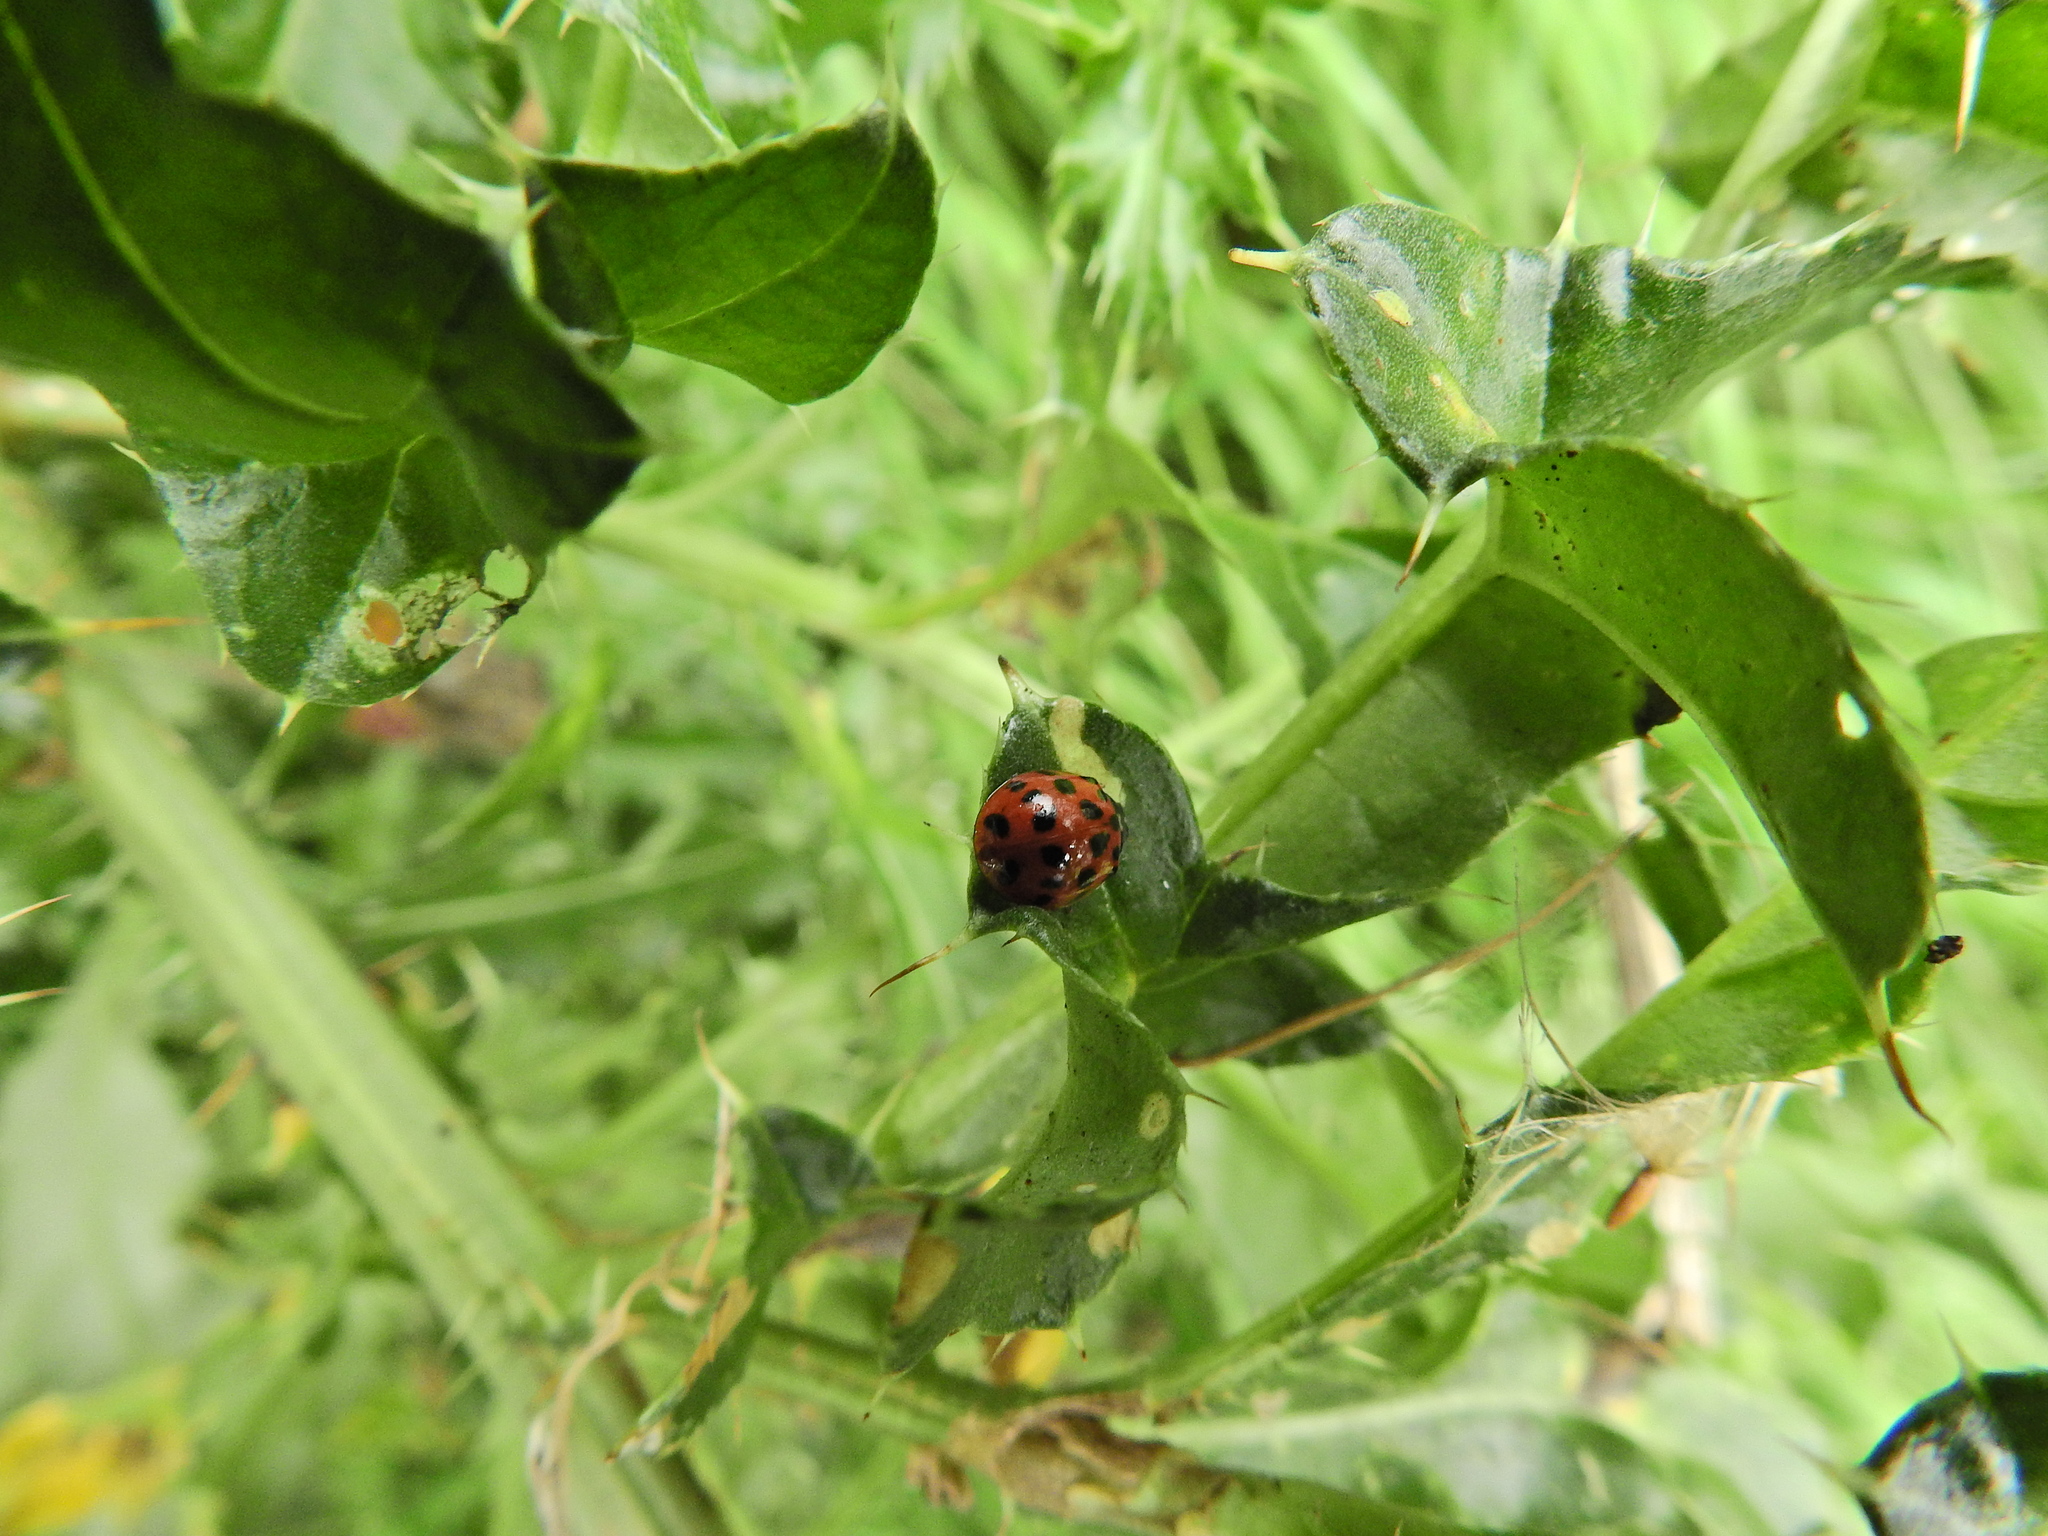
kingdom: Animalia
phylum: Arthropoda
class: Insecta
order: Coleoptera
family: Coccinellidae
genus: Harmonia
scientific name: Harmonia axyridis
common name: Harlequin ladybird
